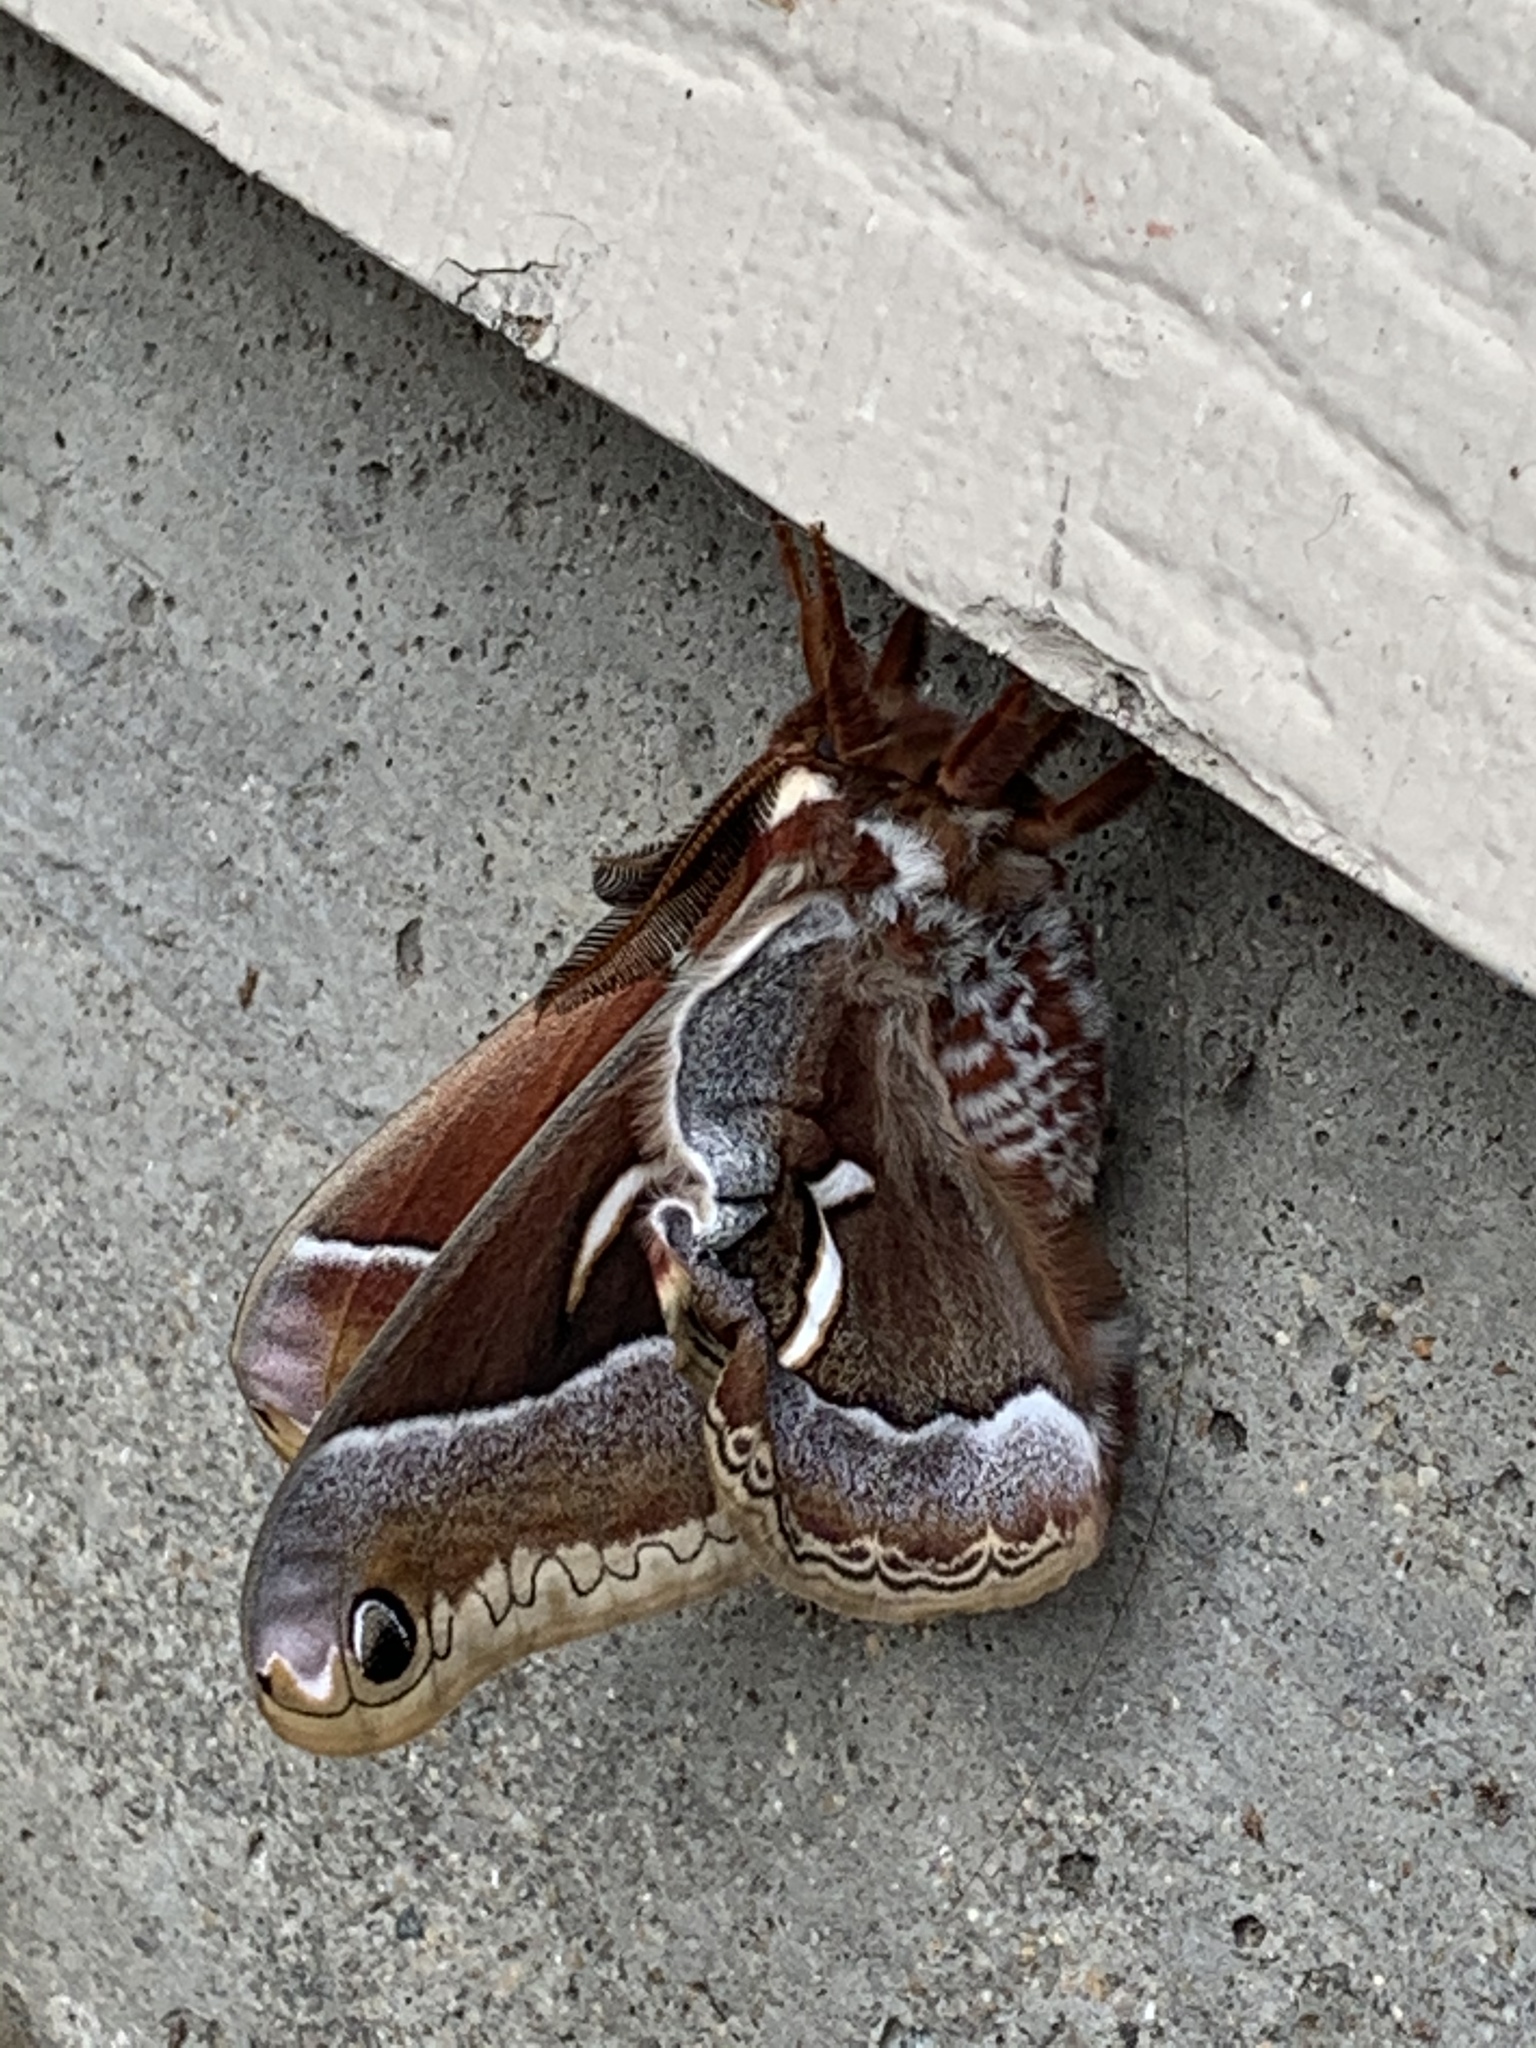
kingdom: Animalia
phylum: Arthropoda
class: Insecta
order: Lepidoptera
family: Saturniidae
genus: Hyalophora
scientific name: Hyalophora euryalus
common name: Ceanothus silkmoth
